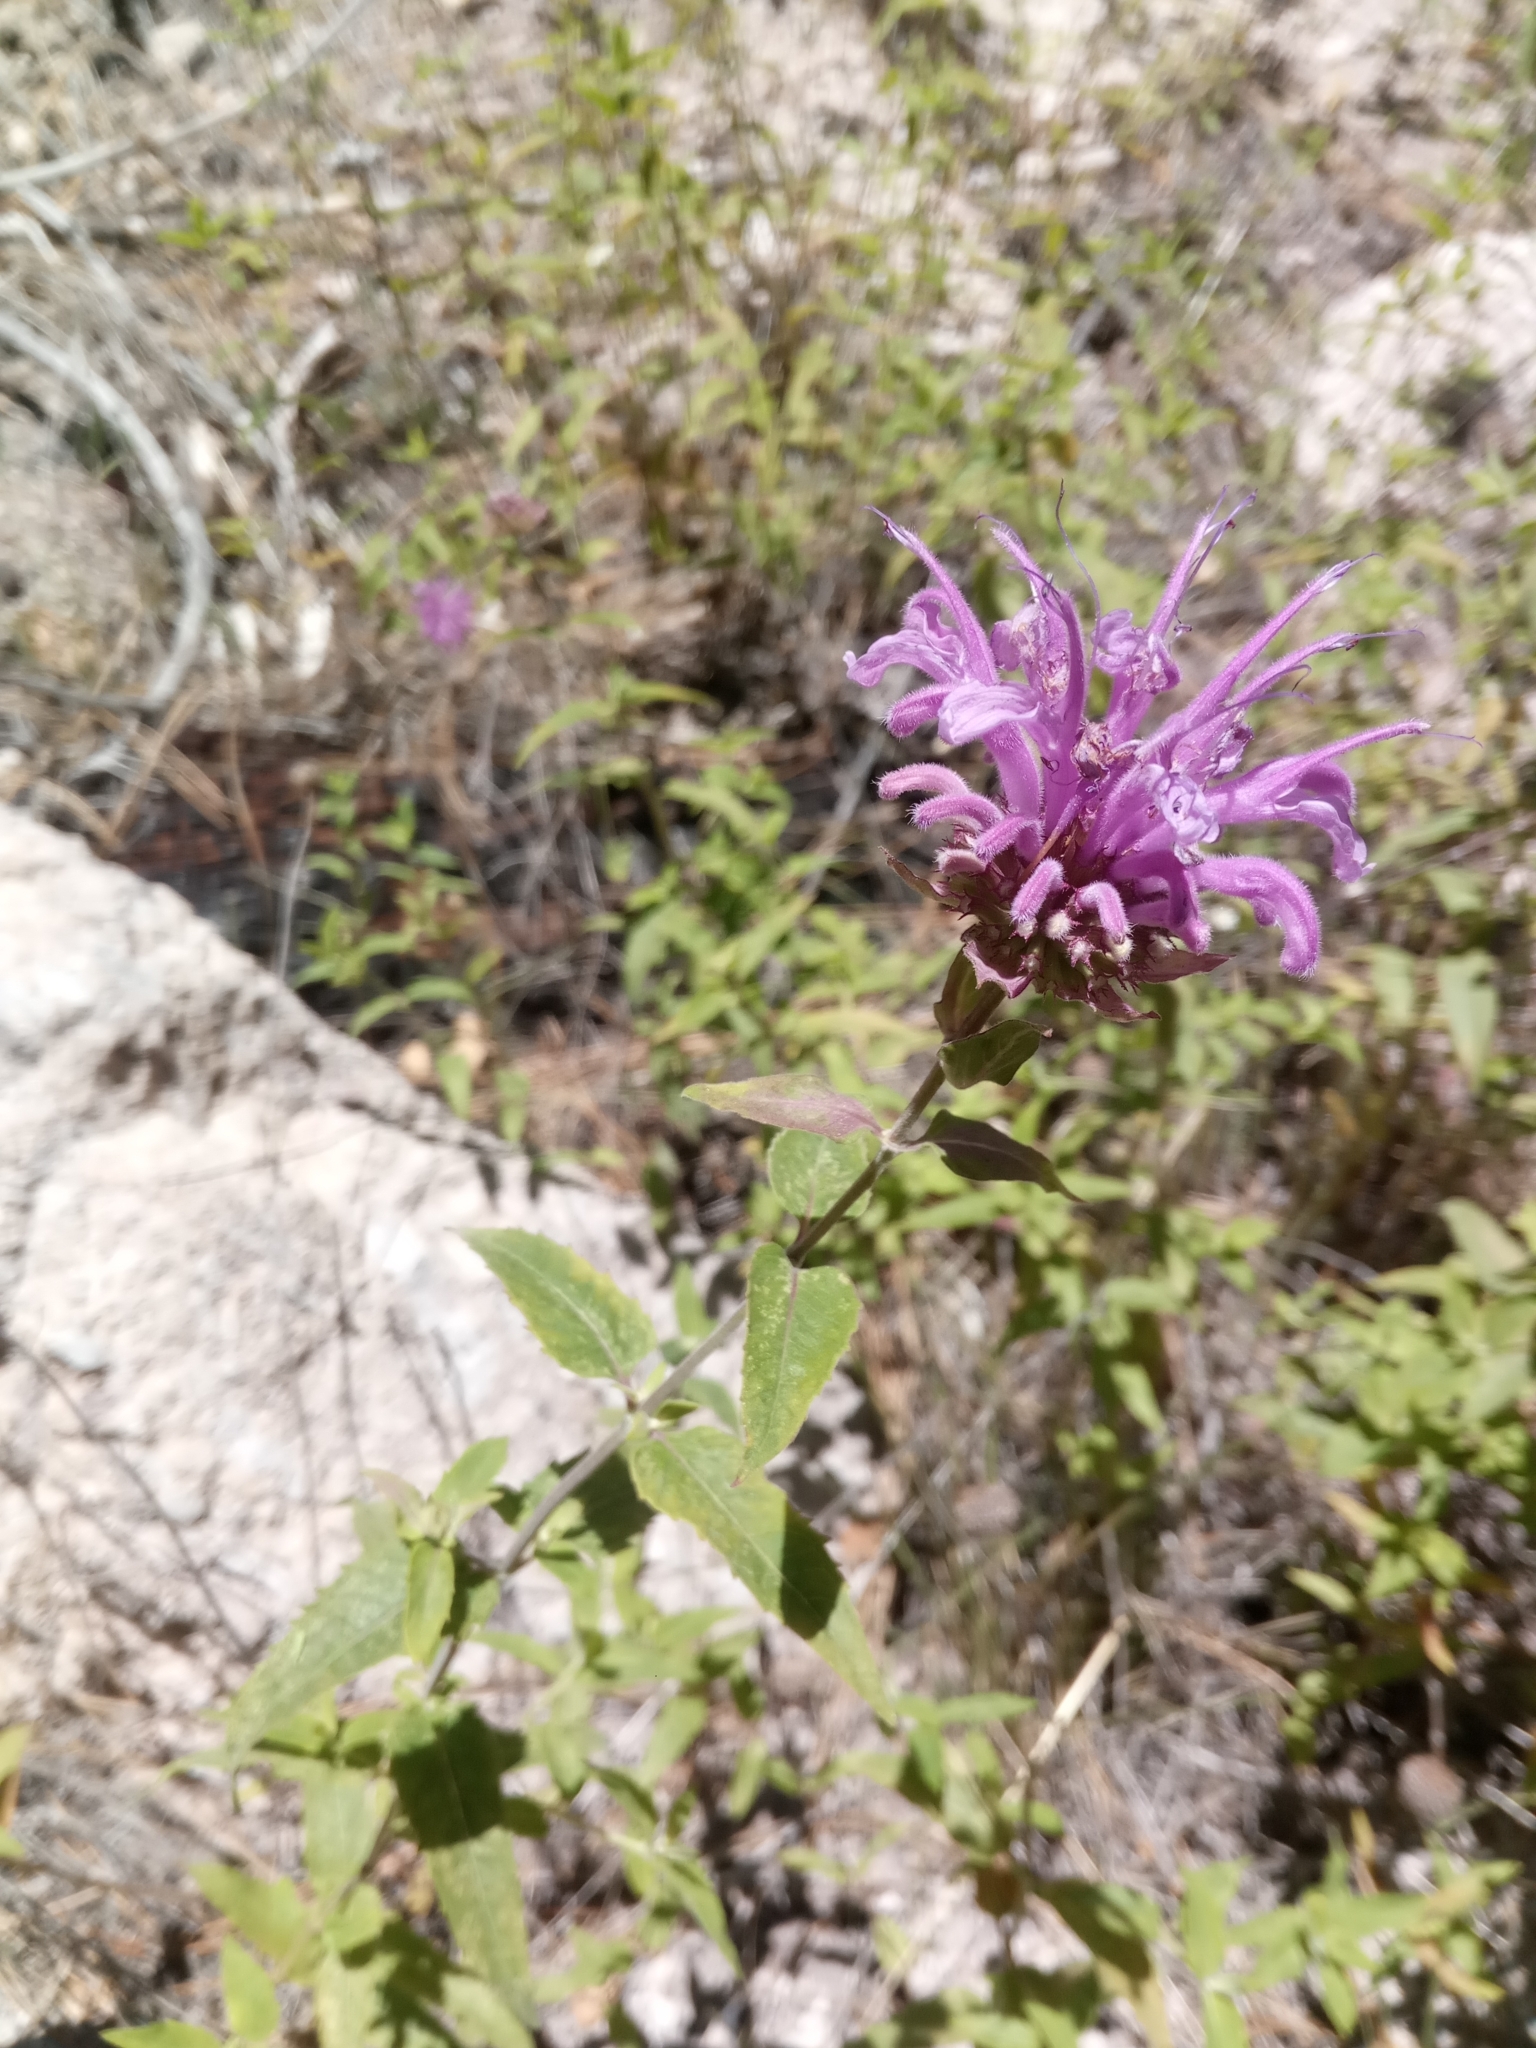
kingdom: Plantae
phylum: Tracheophyta
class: Magnoliopsida
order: Lamiales
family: Lamiaceae
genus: Monarda
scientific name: Monarda fistulosa
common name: Purple beebalm
